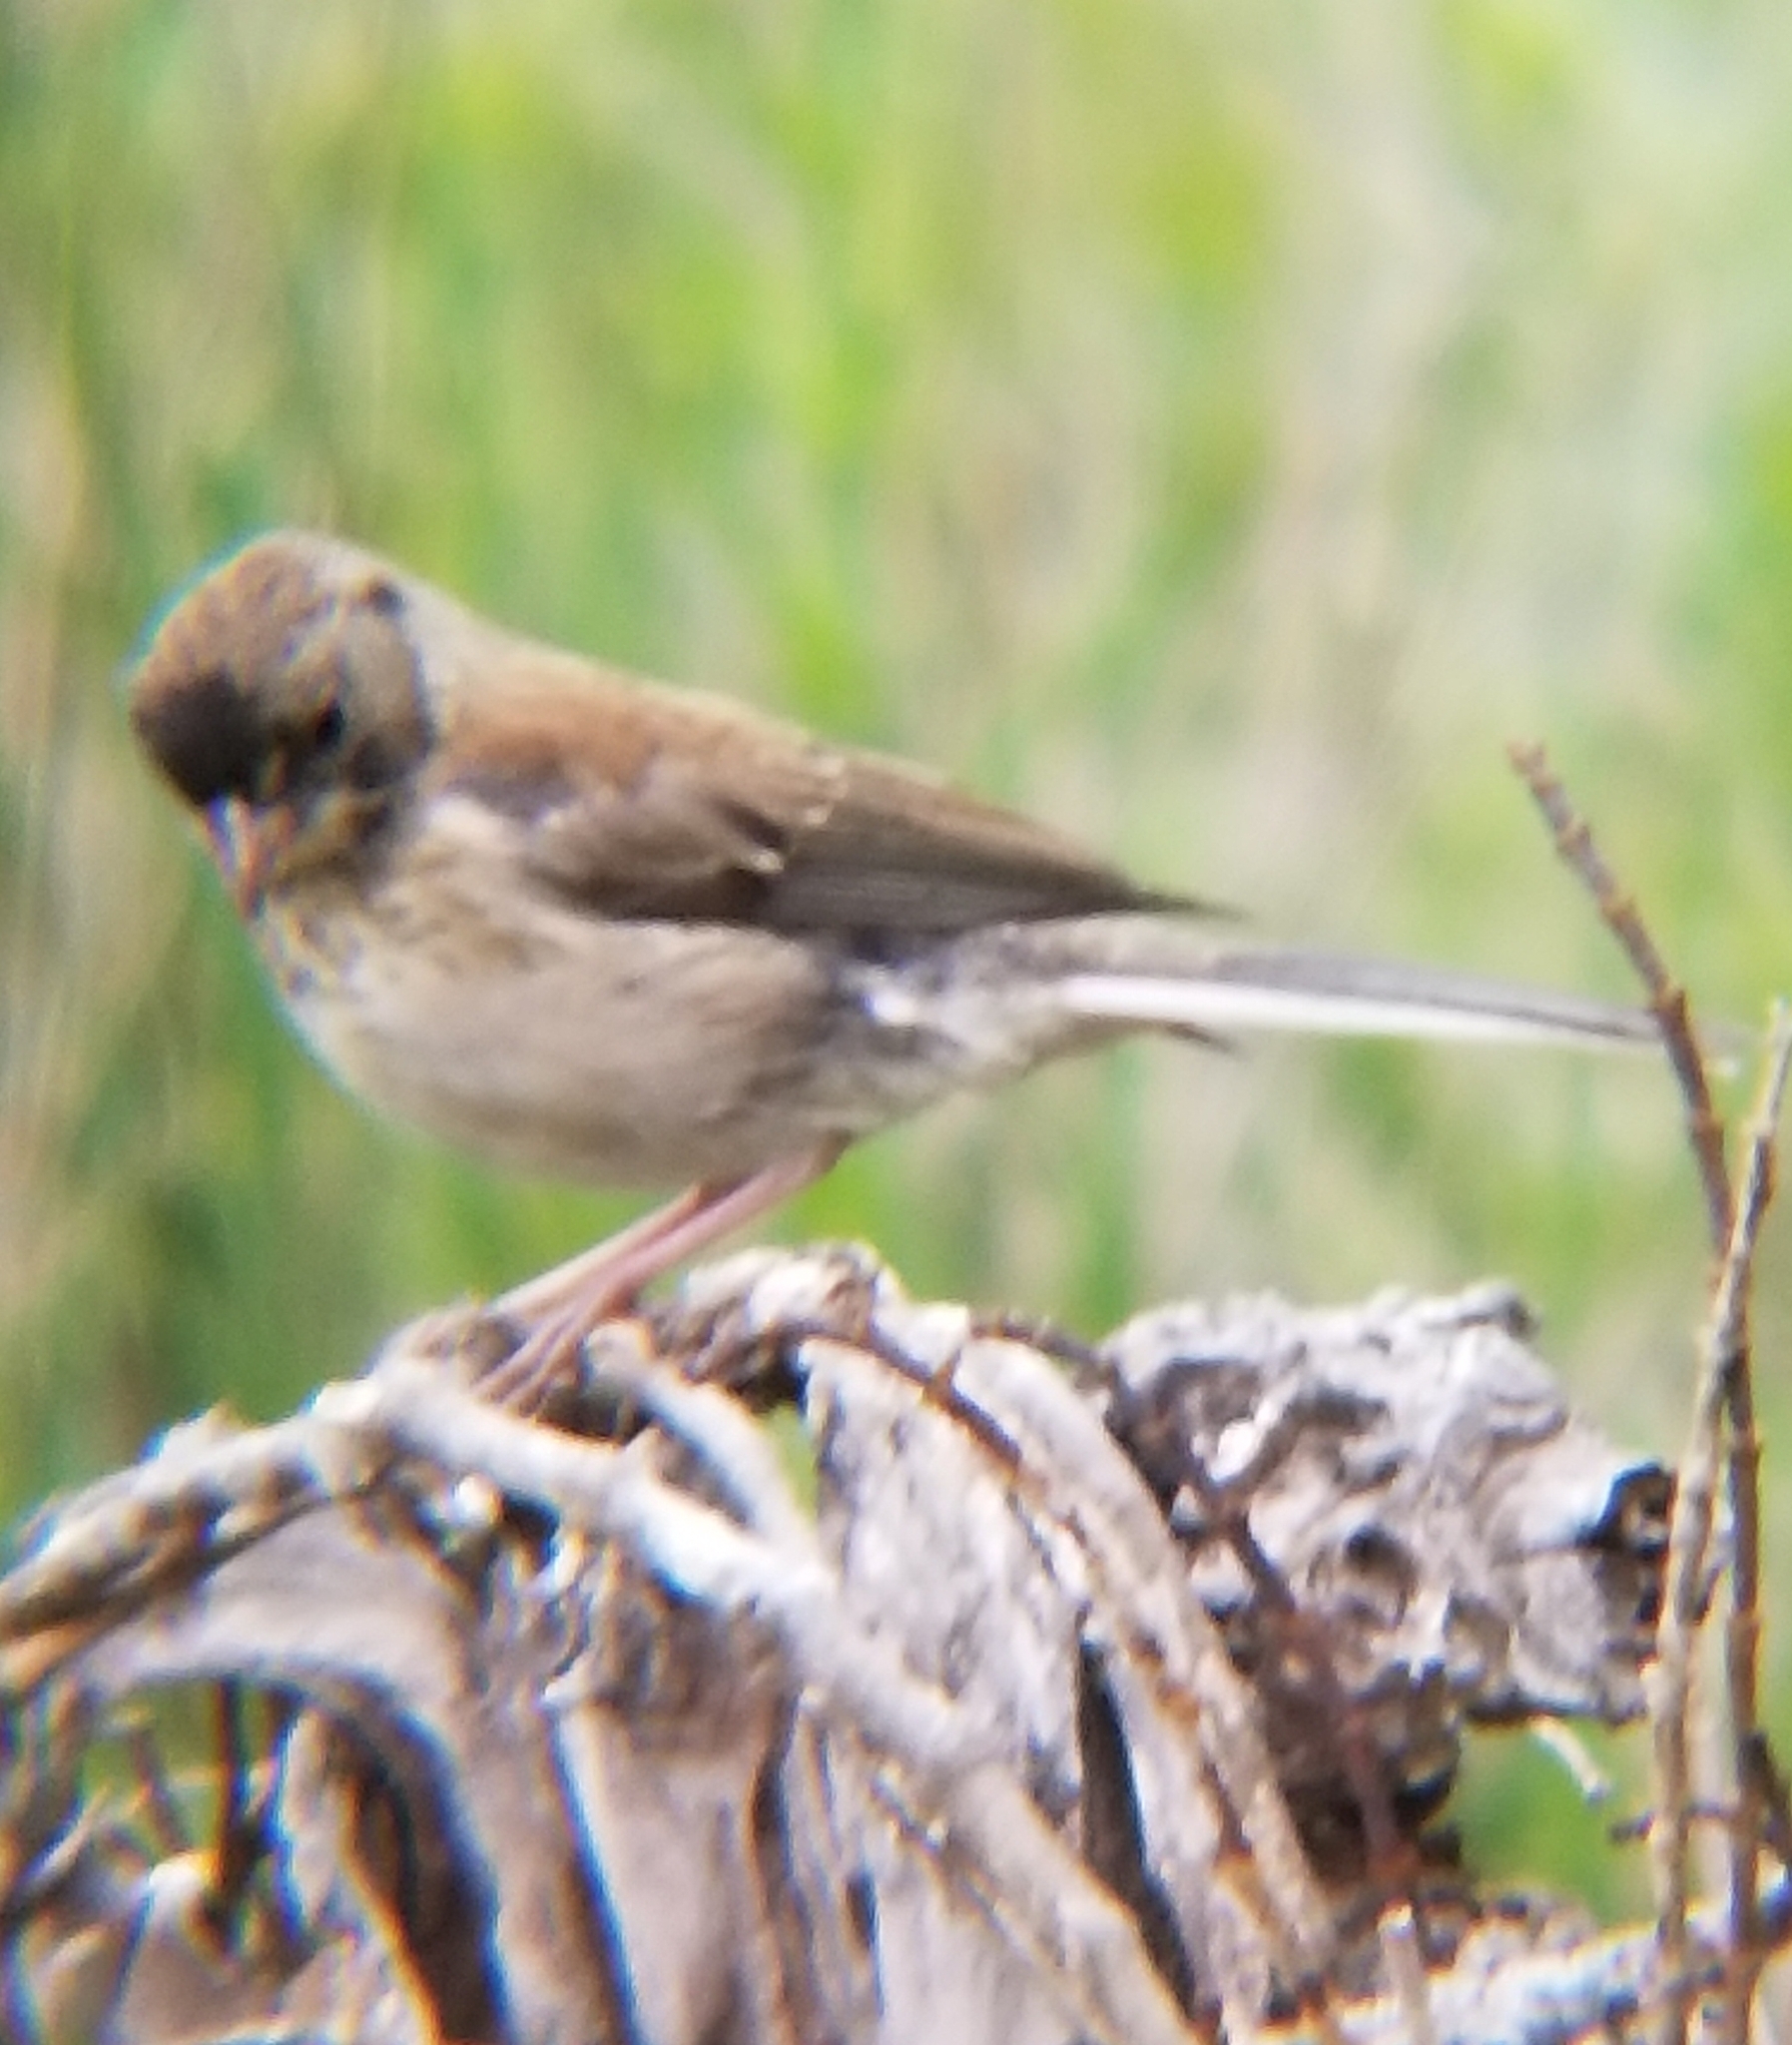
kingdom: Animalia
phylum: Chordata
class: Aves
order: Passeriformes
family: Passerellidae
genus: Junco
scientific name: Junco hyemalis
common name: Dark-eyed junco
